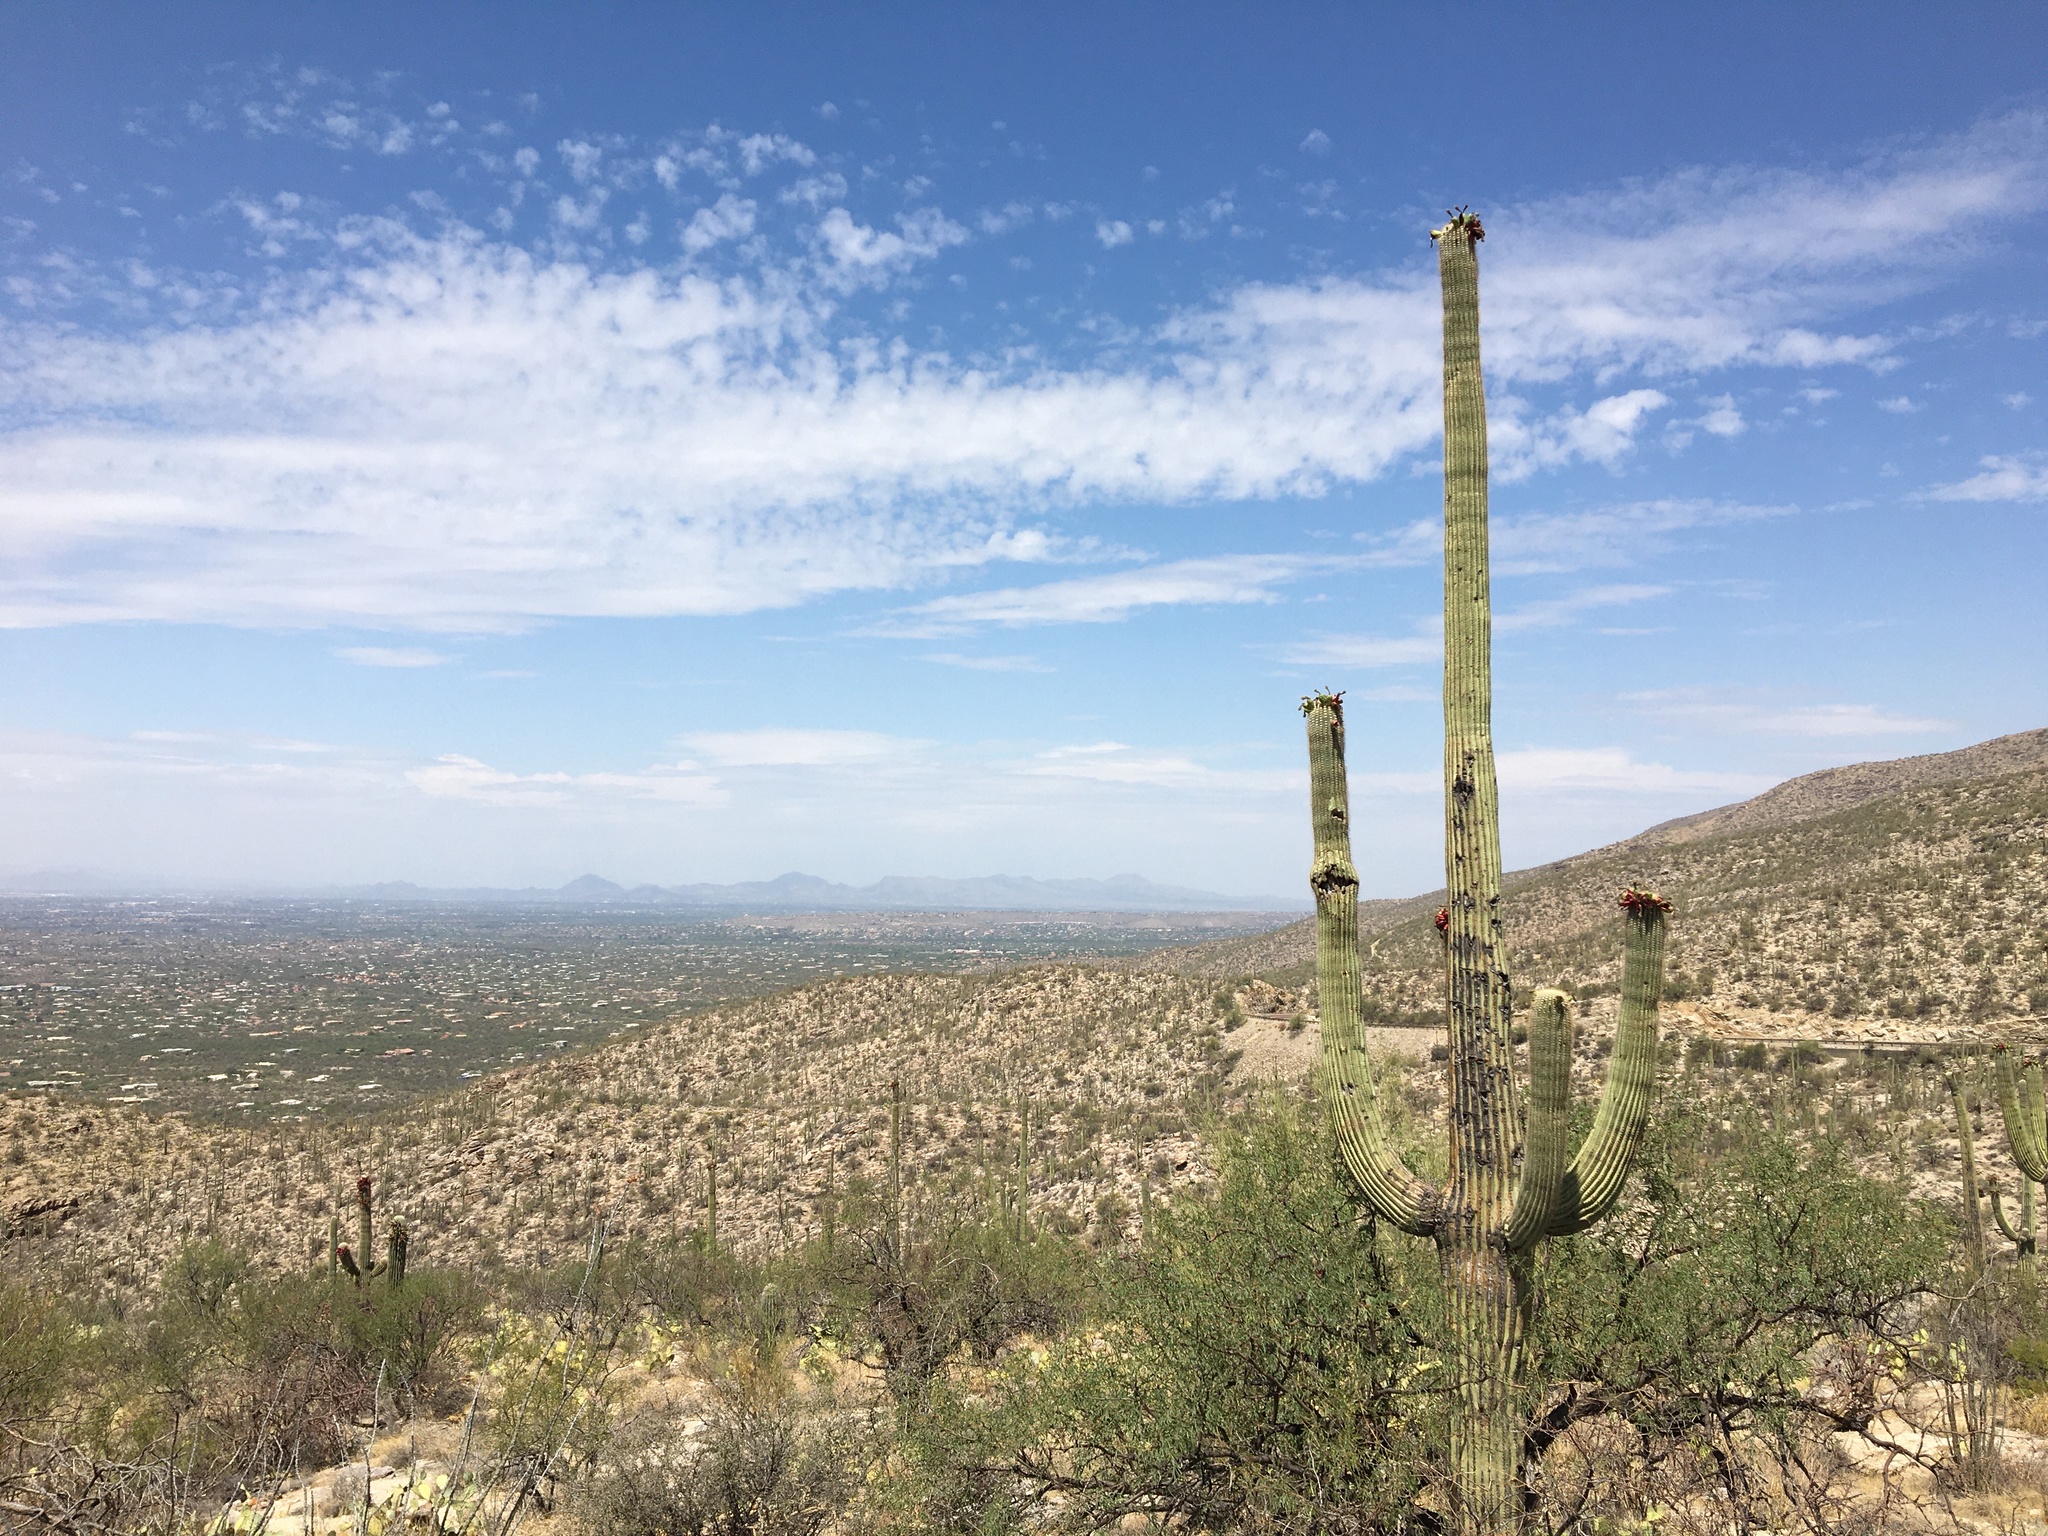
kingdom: Plantae
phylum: Tracheophyta
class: Magnoliopsida
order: Caryophyllales
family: Cactaceae
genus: Carnegiea
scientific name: Carnegiea gigantea
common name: Saguaro
